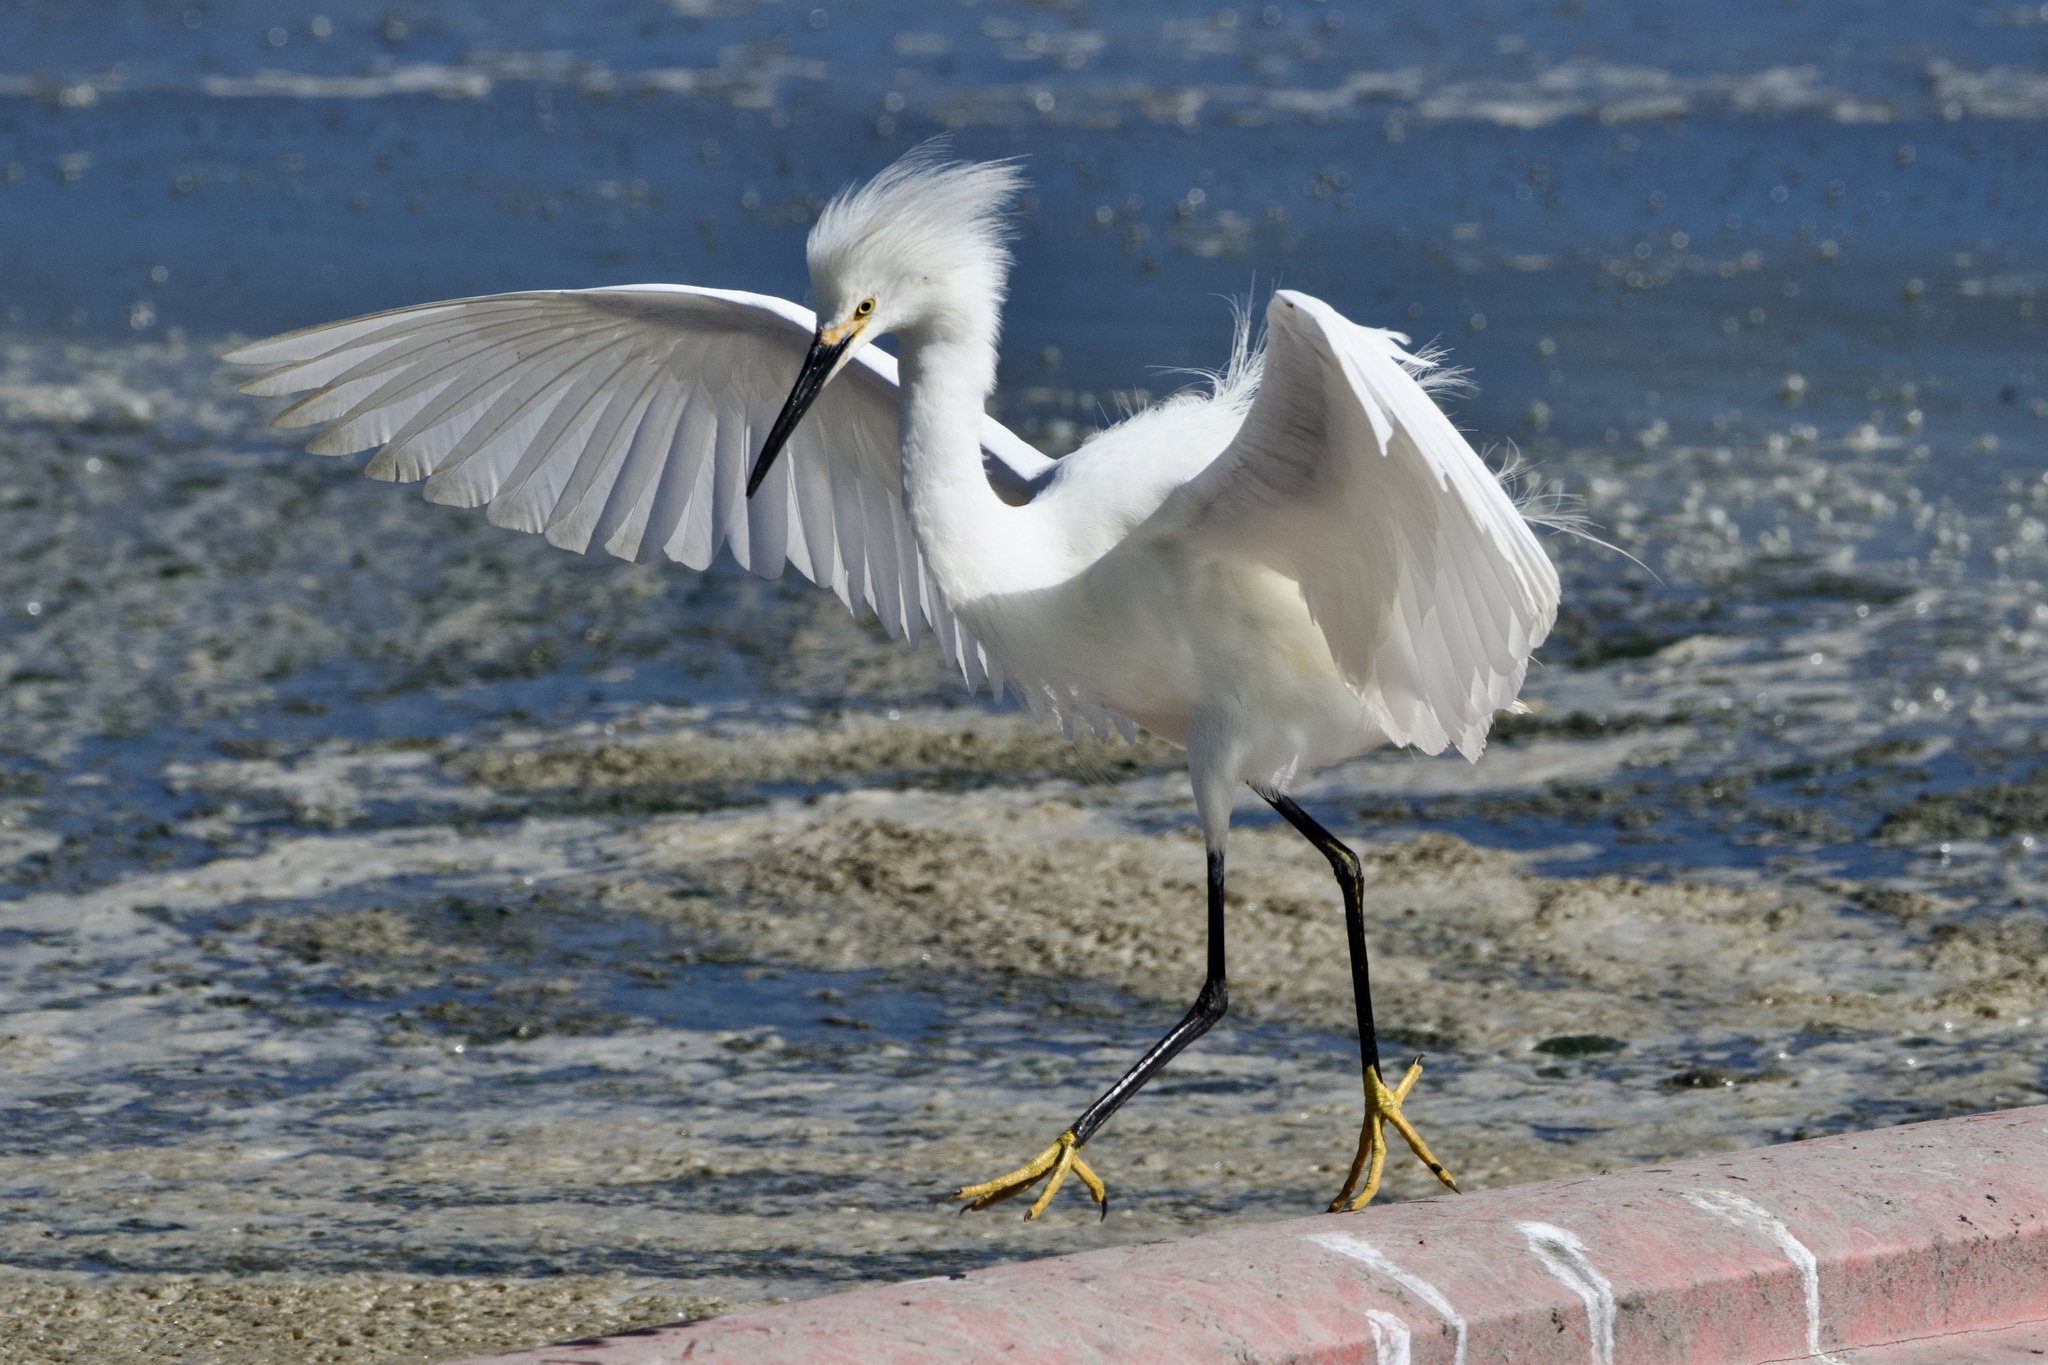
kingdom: Animalia
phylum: Chordata
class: Aves
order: Pelecaniformes
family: Ardeidae
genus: Egretta
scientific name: Egretta thula
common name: Snowy egret
